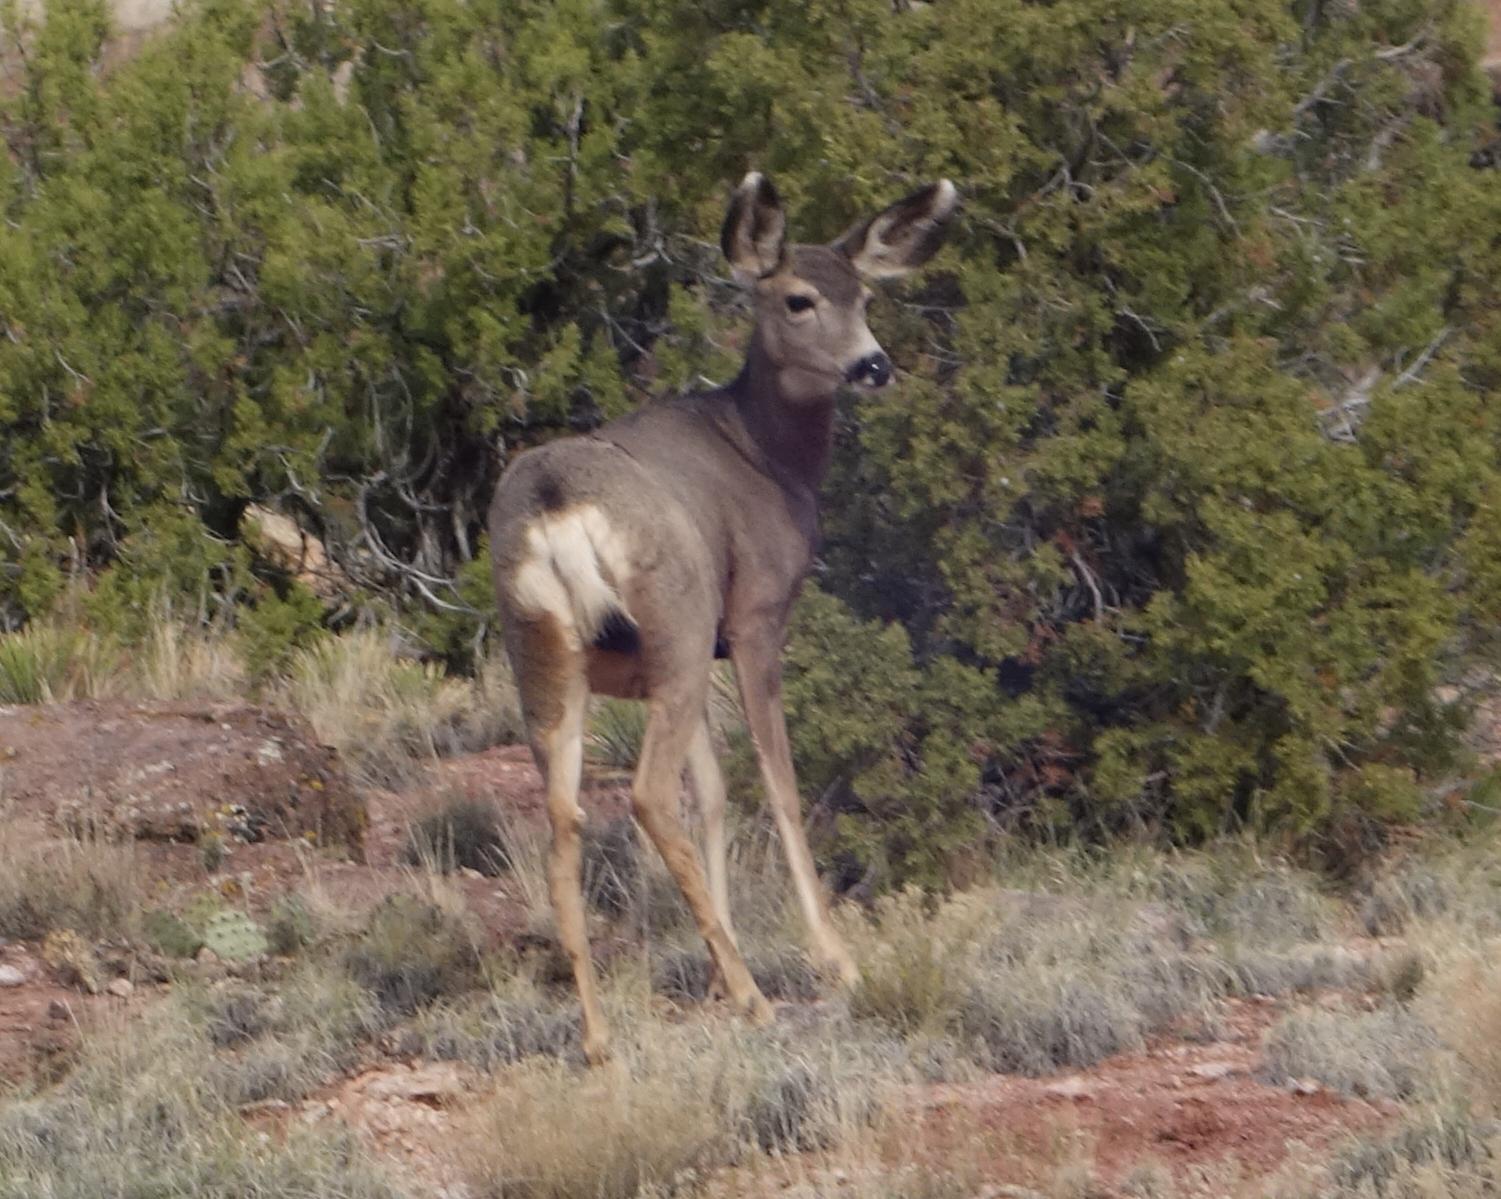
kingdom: Animalia
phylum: Chordata
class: Mammalia
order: Artiodactyla
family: Cervidae
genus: Odocoileus
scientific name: Odocoileus hemionus
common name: Mule deer
